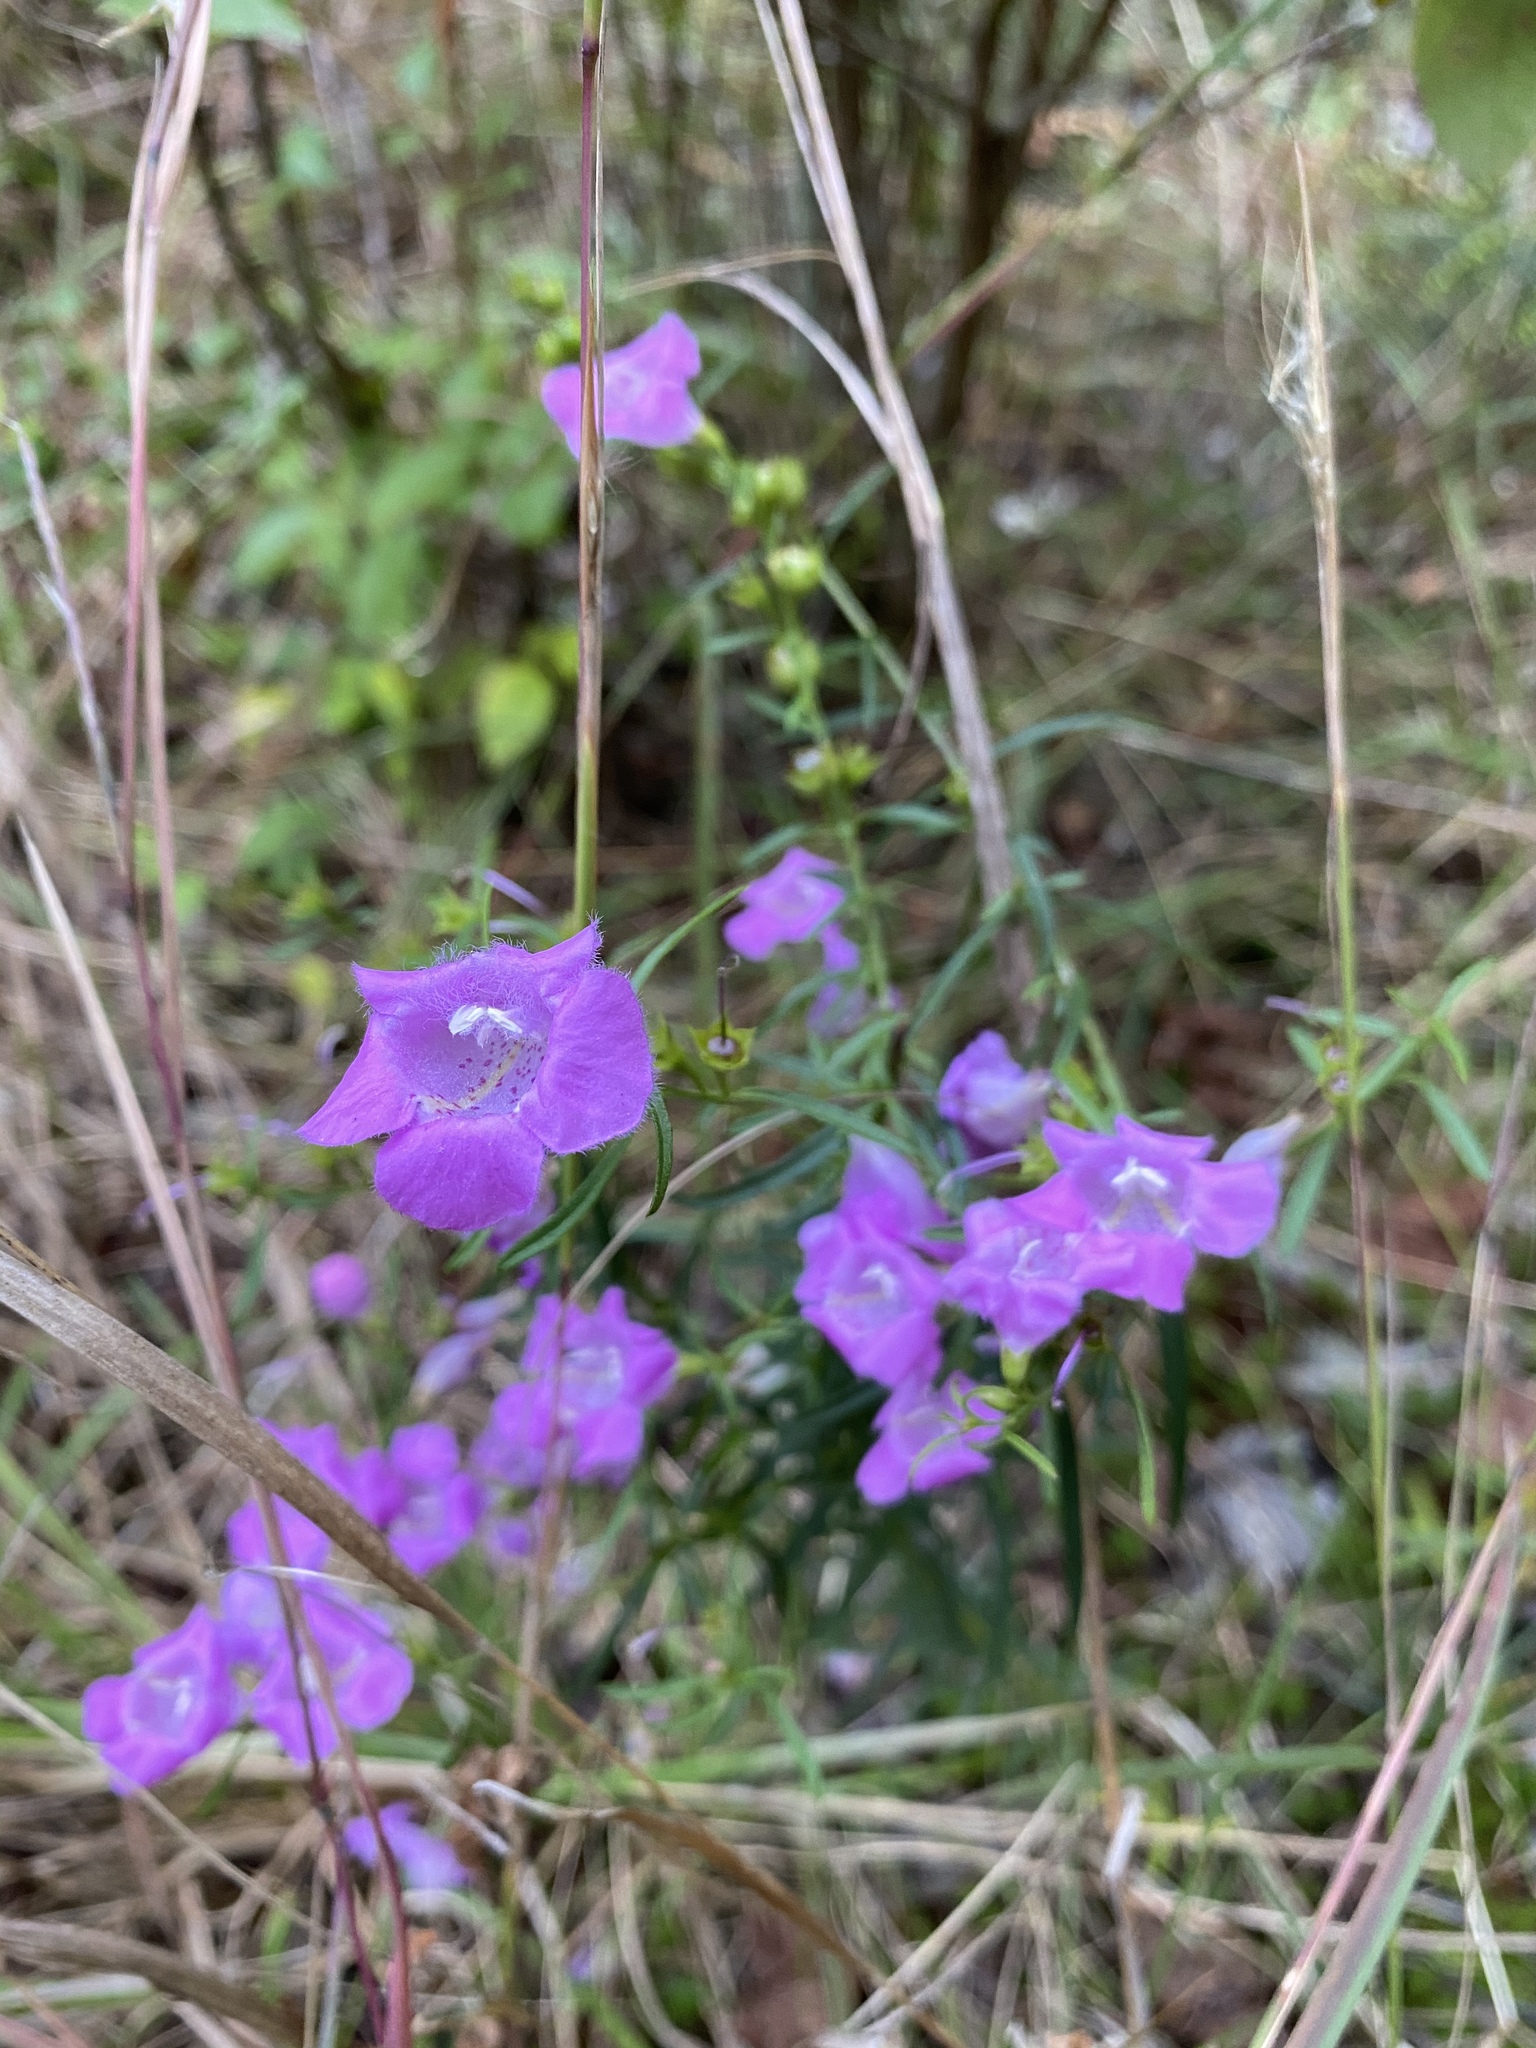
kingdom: Plantae
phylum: Tracheophyta
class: Magnoliopsida
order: Lamiales
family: Orobanchaceae
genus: Agalinis
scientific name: Agalinis purpurea
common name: Purple false foxglove
